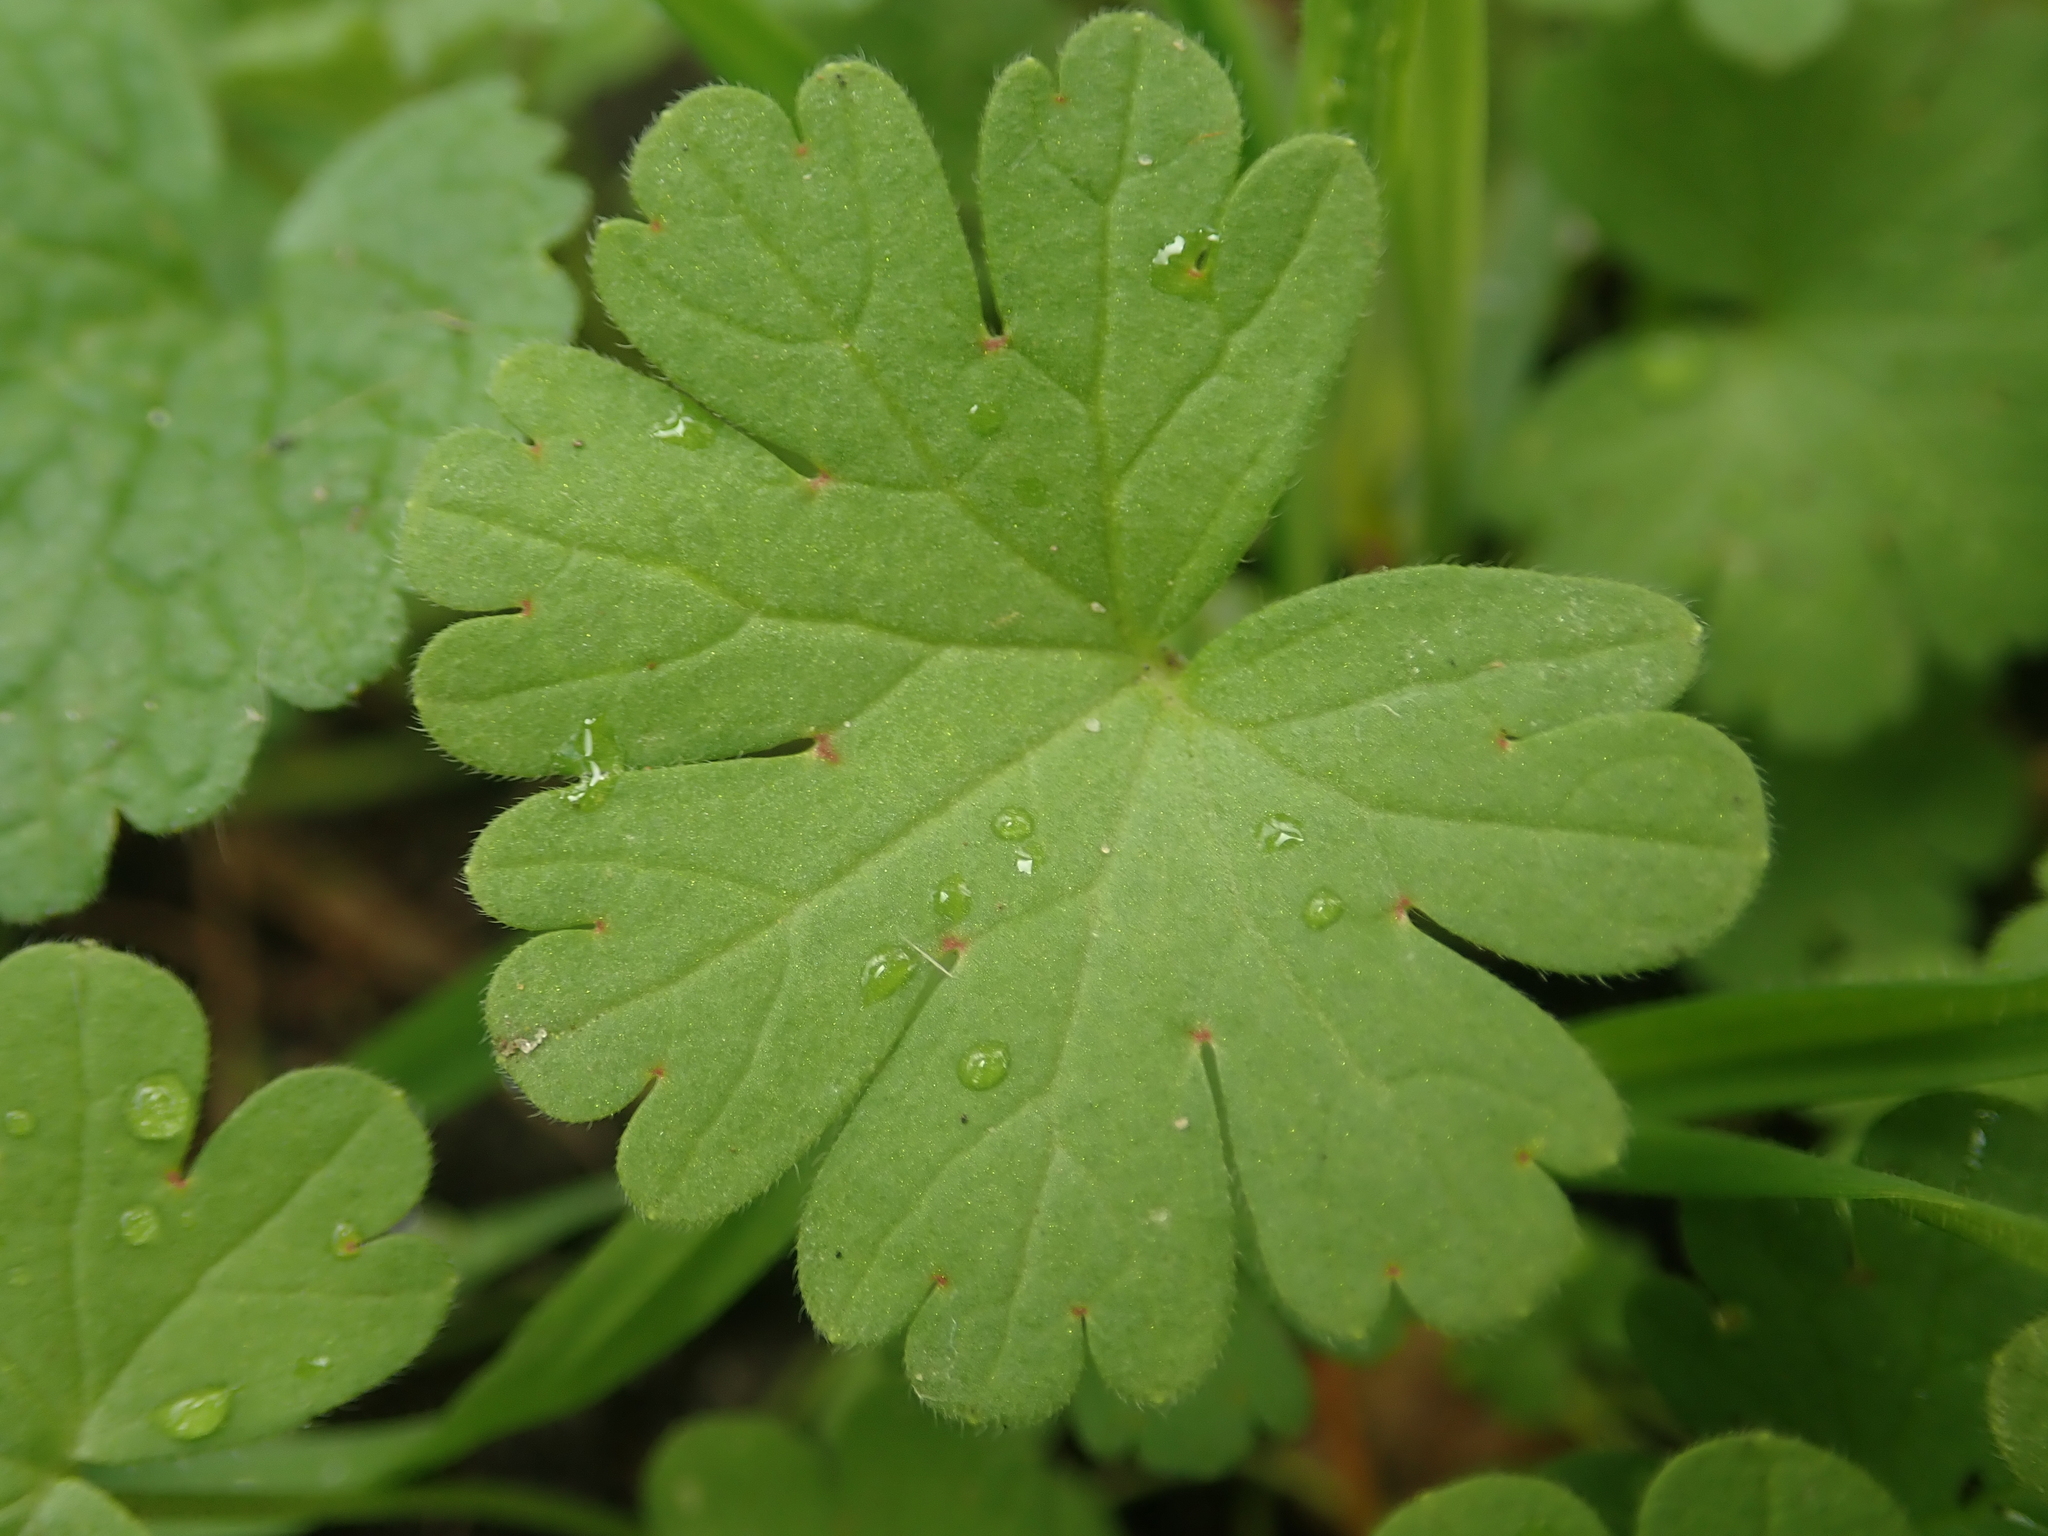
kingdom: Plantae
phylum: Tracheophyta
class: Magnoliopsida
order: Geraniales
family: Geraniaceae
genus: Geranium
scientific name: Geranium molle
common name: Dove's-foot crane's-bill
